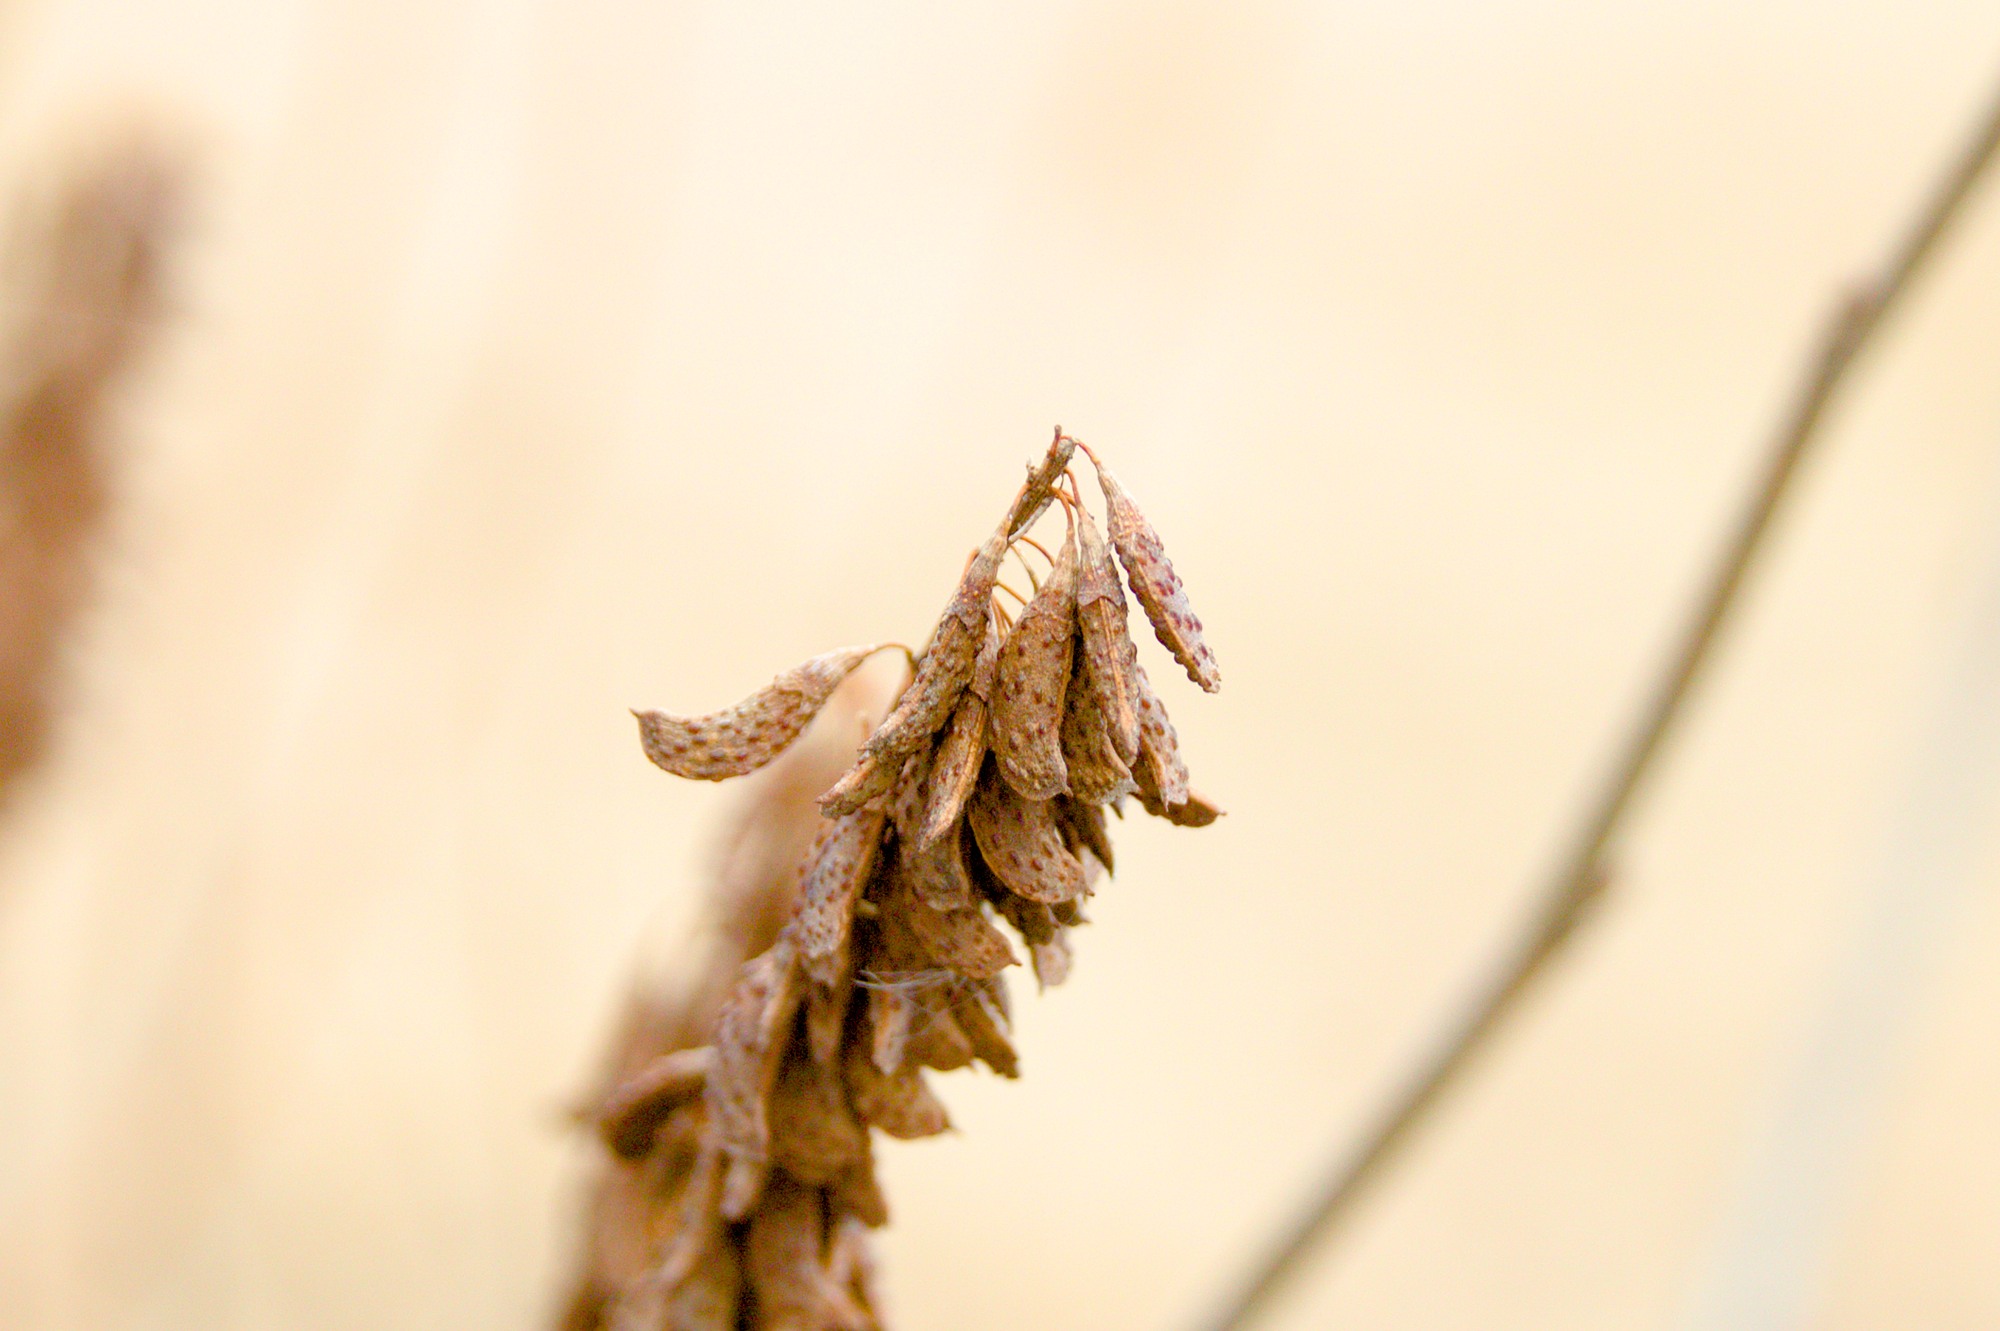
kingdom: Plantae
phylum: Tracheophyta
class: Magnoliopsida
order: Fabales
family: Fabaceae
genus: Amorpha
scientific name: Amorpha fruticosa
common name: False indigo
